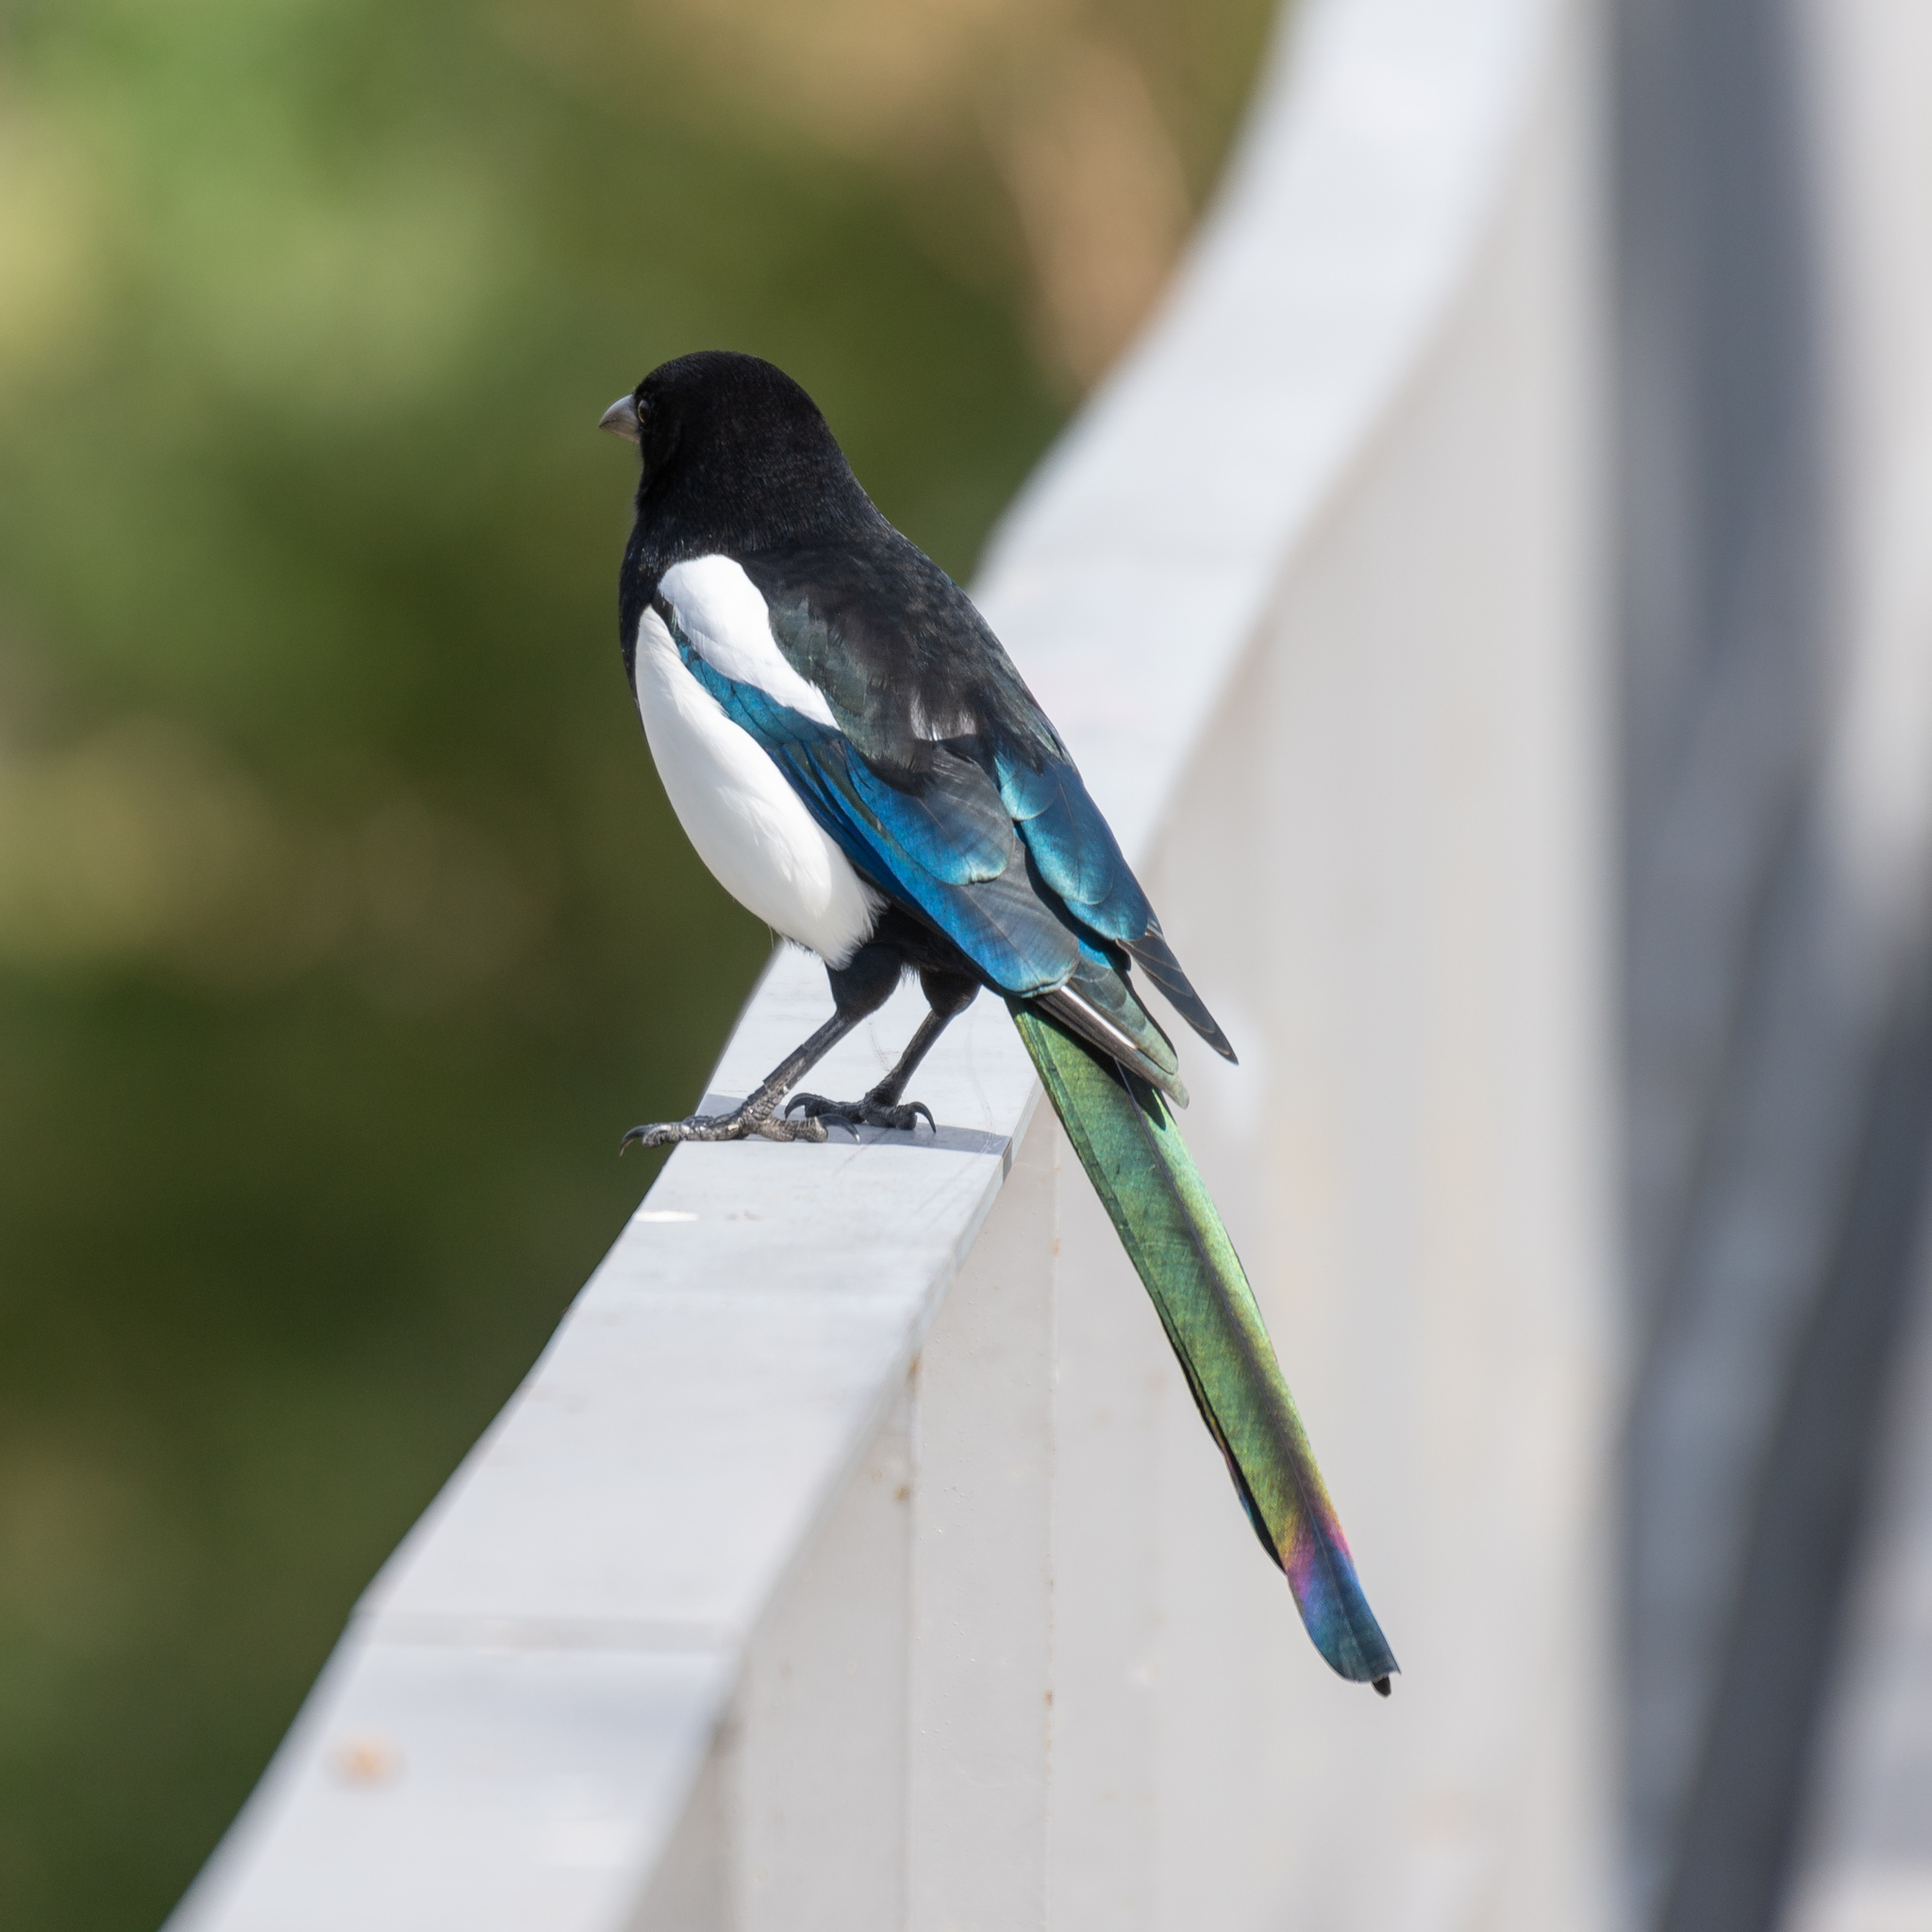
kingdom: Animalia
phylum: Chordata
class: Aves
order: Passeriformes
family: Corvidae
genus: Pica
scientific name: Pica pica
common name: Eurasian magpie
